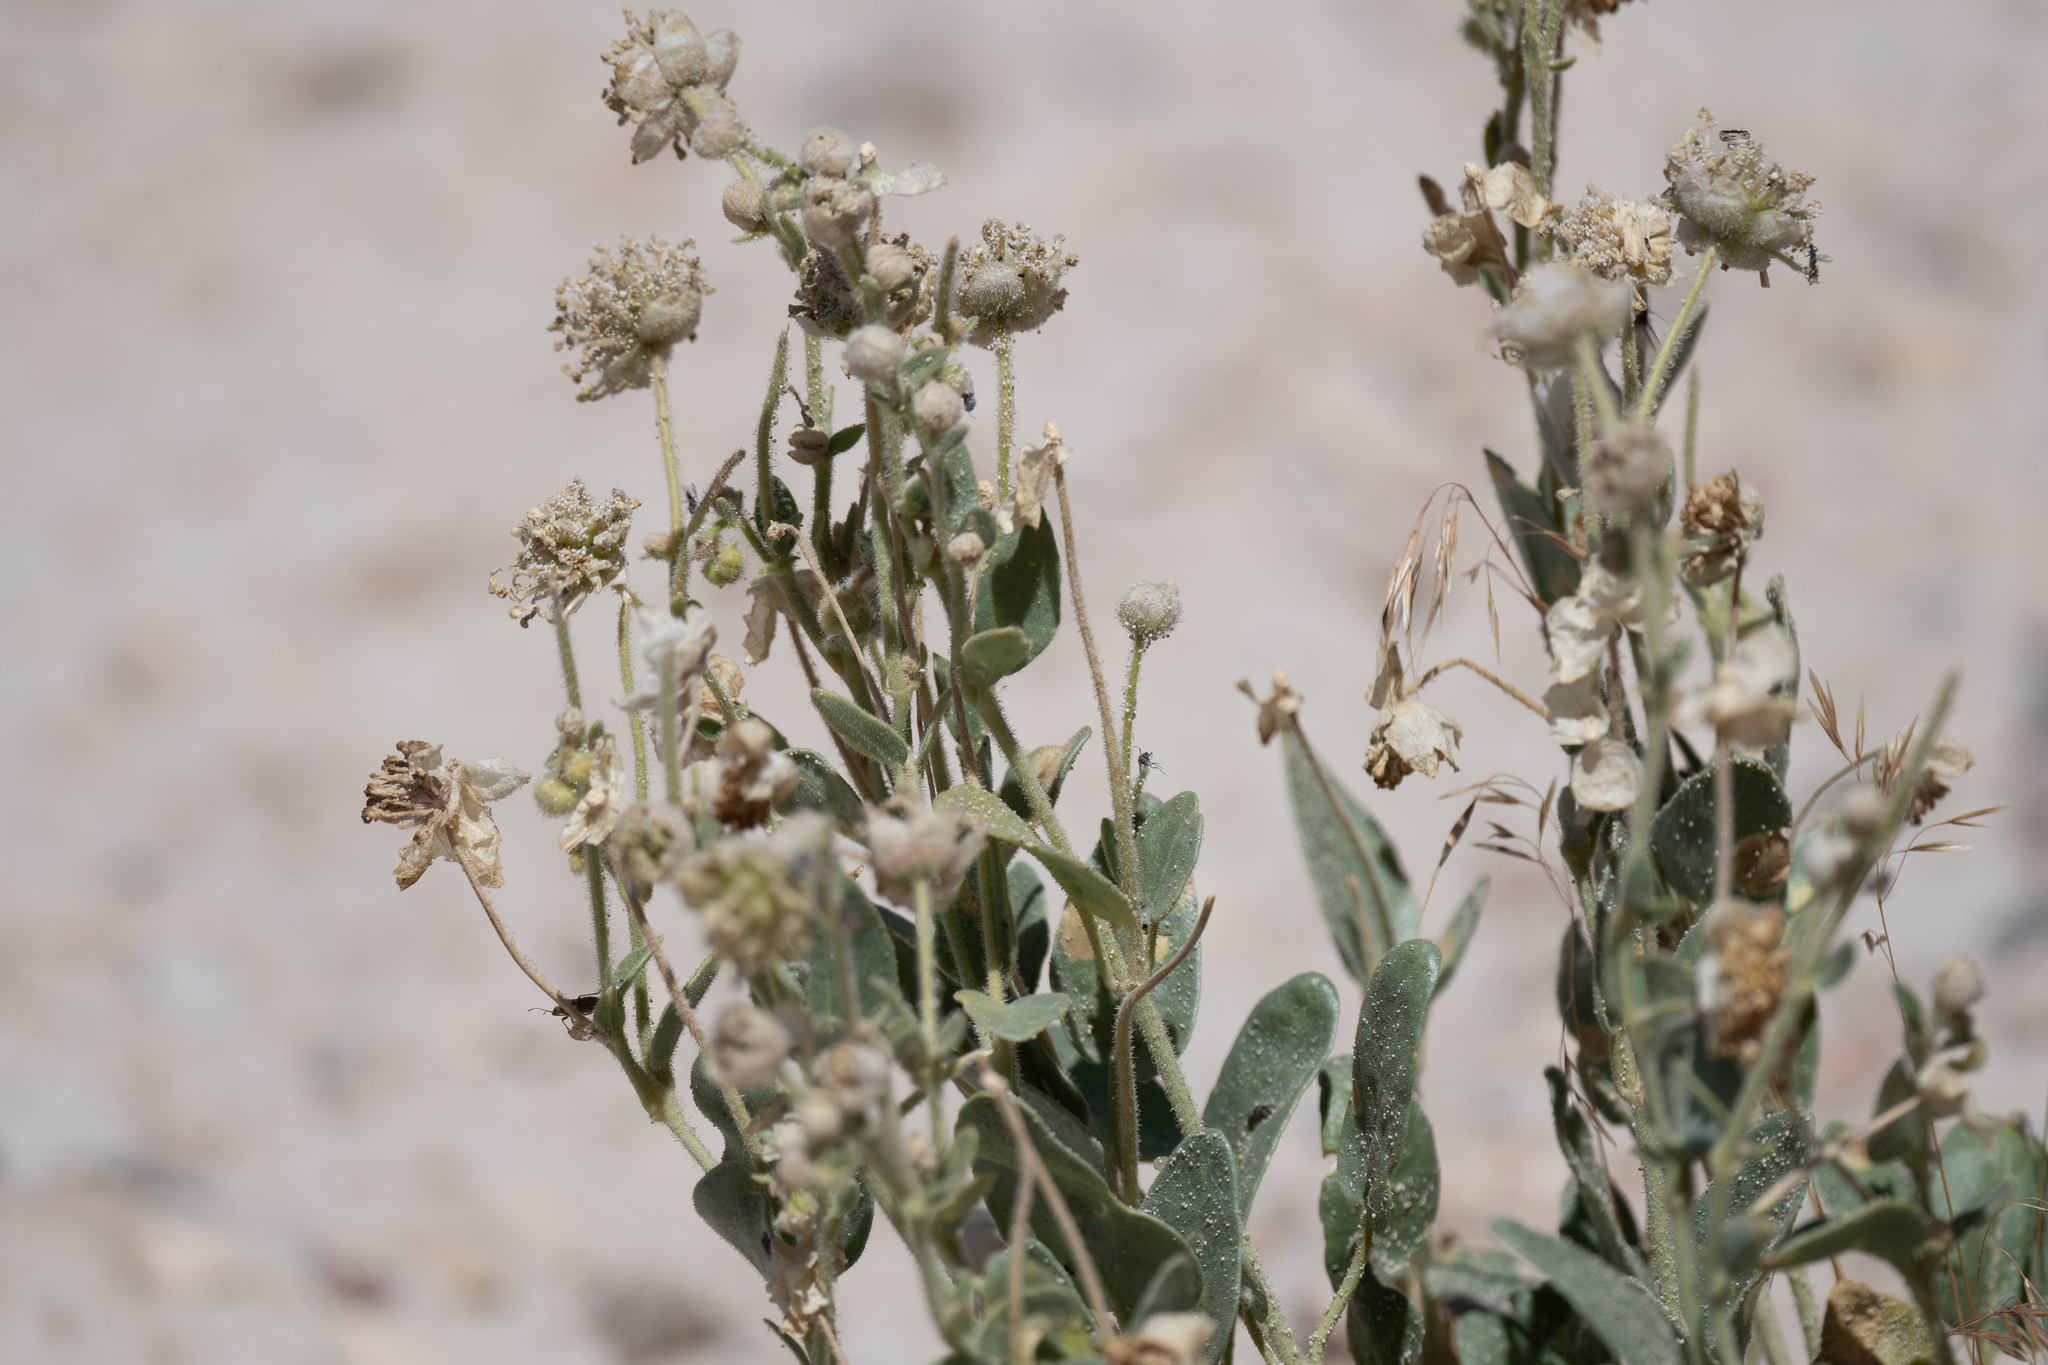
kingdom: Plantae
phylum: Tracheophyta
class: Magnoliopsida
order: Caryophyllales
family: Nyctaginaceae
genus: Abronia
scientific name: Abronia elliptica
